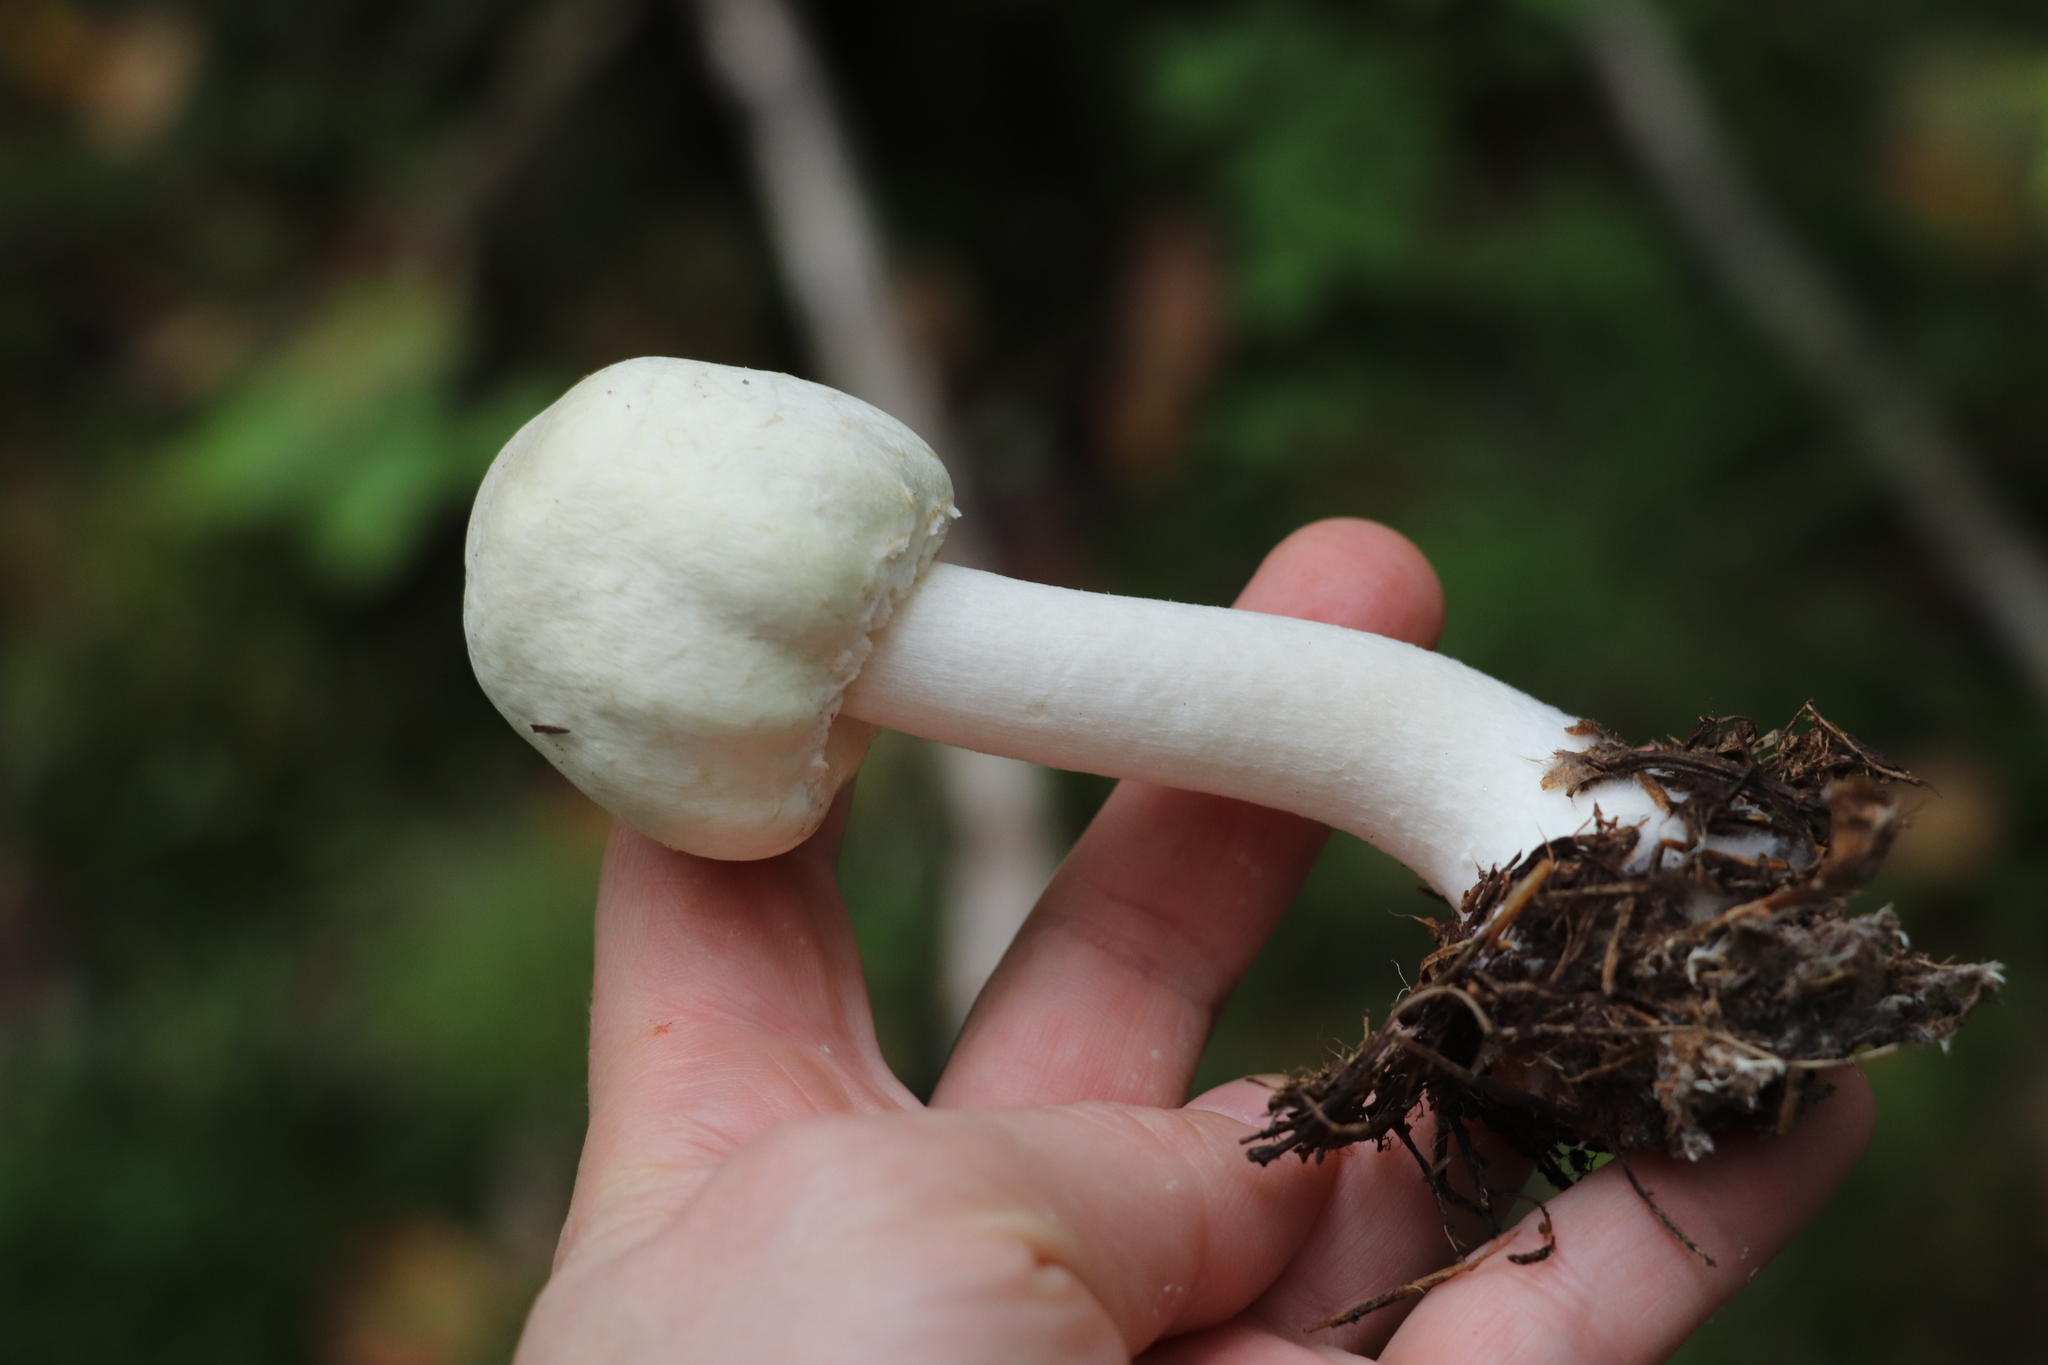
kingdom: Fungi
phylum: Basidiomycota
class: Agaricomycetes
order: Agaricales
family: Agaricaceae
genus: Agaricus
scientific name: Agaricus sylvicola
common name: Wood mushroom
